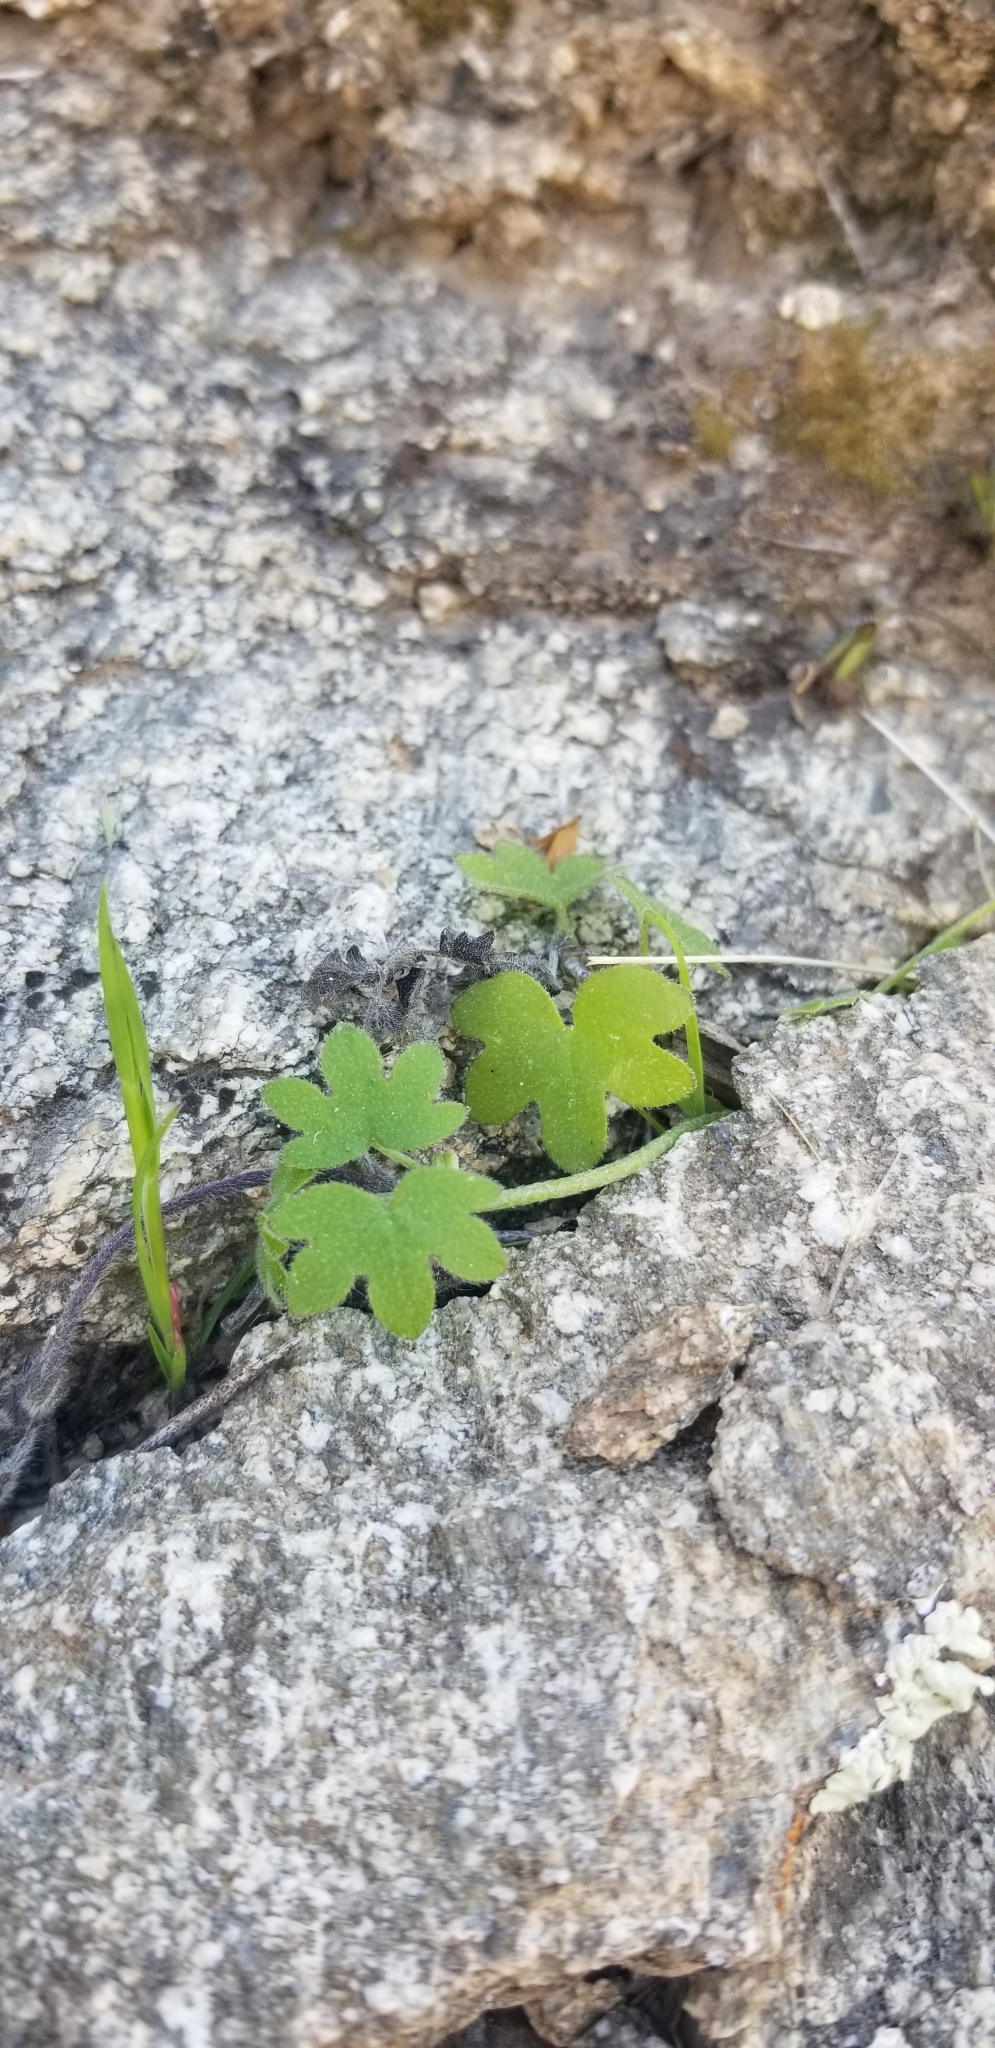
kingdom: Plantae
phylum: Tracheophyta
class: Magnoliopsida
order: Apiales
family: Apiaceae
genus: Bowlesia
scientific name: Bowlesia incana
